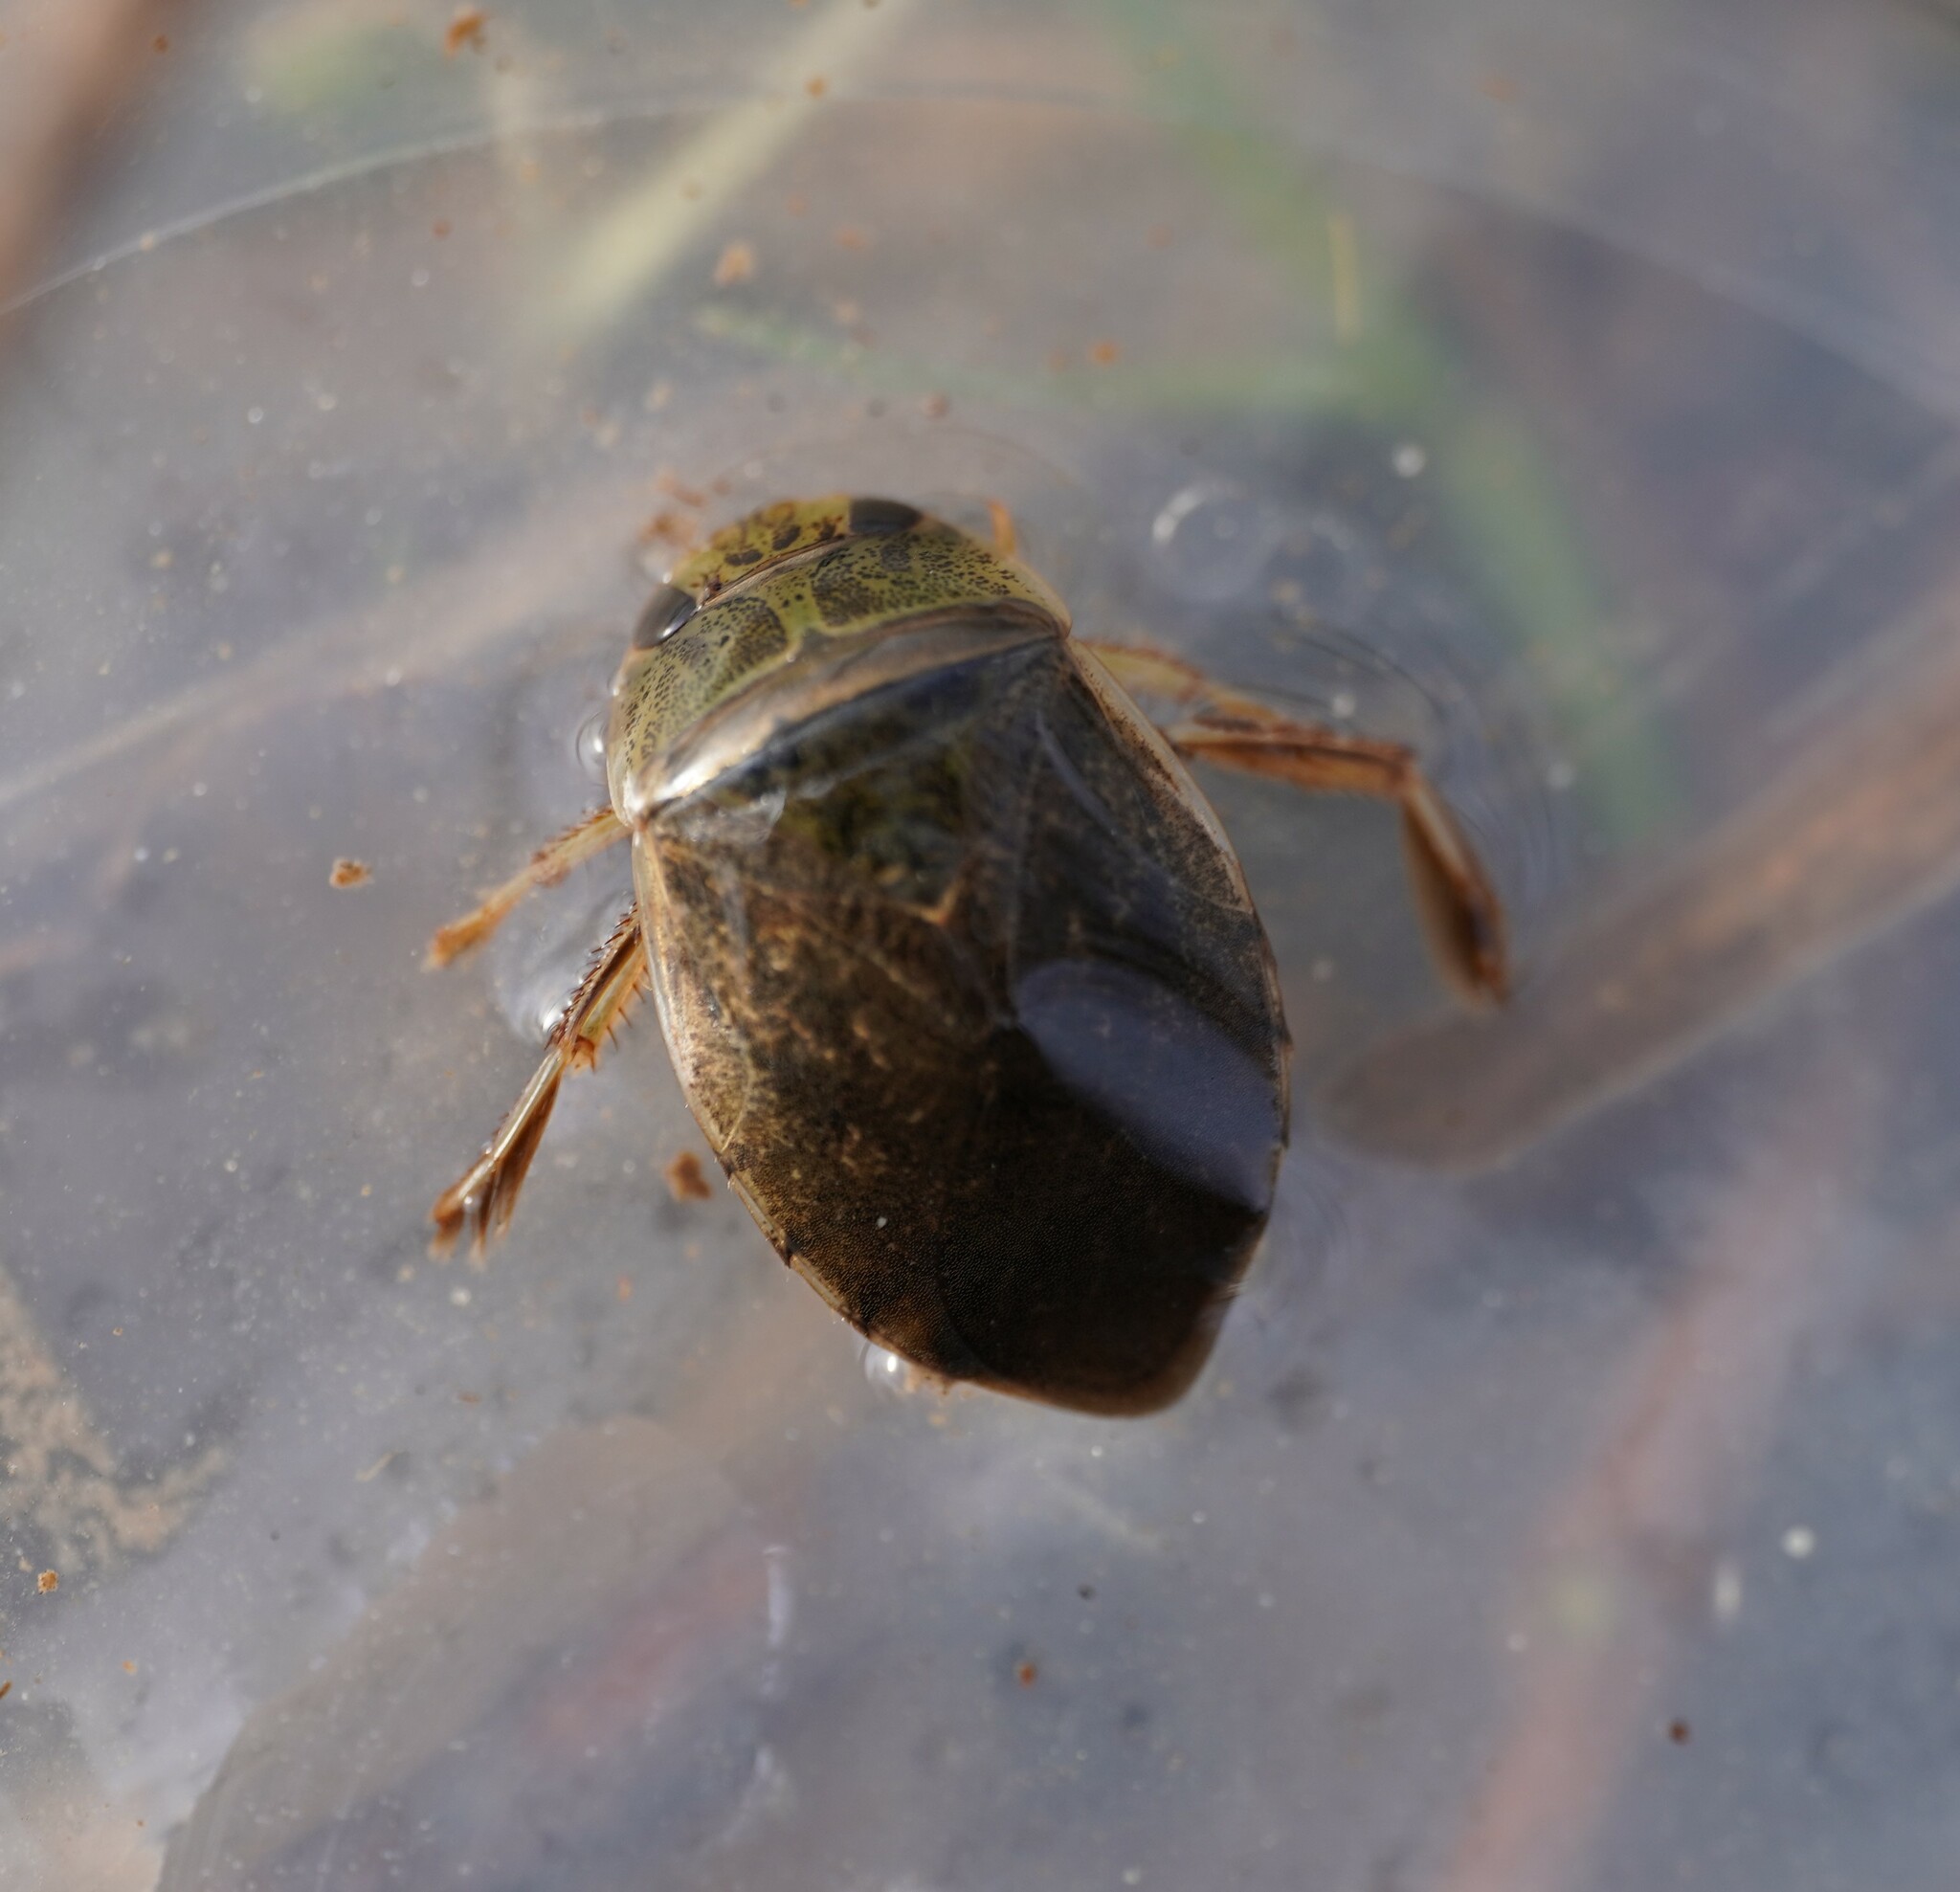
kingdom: Animalia
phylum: Arthropoda
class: Insecta
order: Hemiptera
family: Naucoridae
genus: Ilyocoris
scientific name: Ilyocoris cimicoides
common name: Saucer bugs
